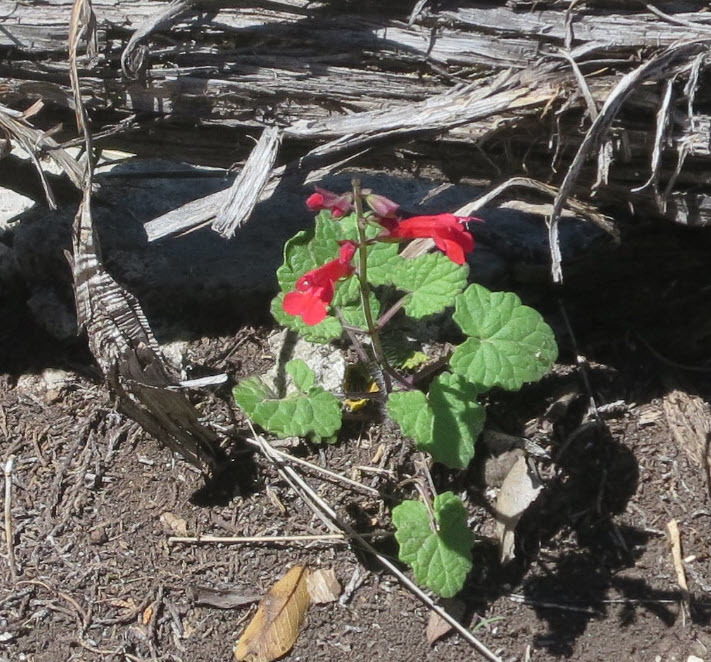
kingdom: Plantae
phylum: Tracheophyta
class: Magnoliopsida
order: Lamiales
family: Lamiaceae
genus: Salvia
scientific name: Salvia roemeriana
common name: Cedar sage
